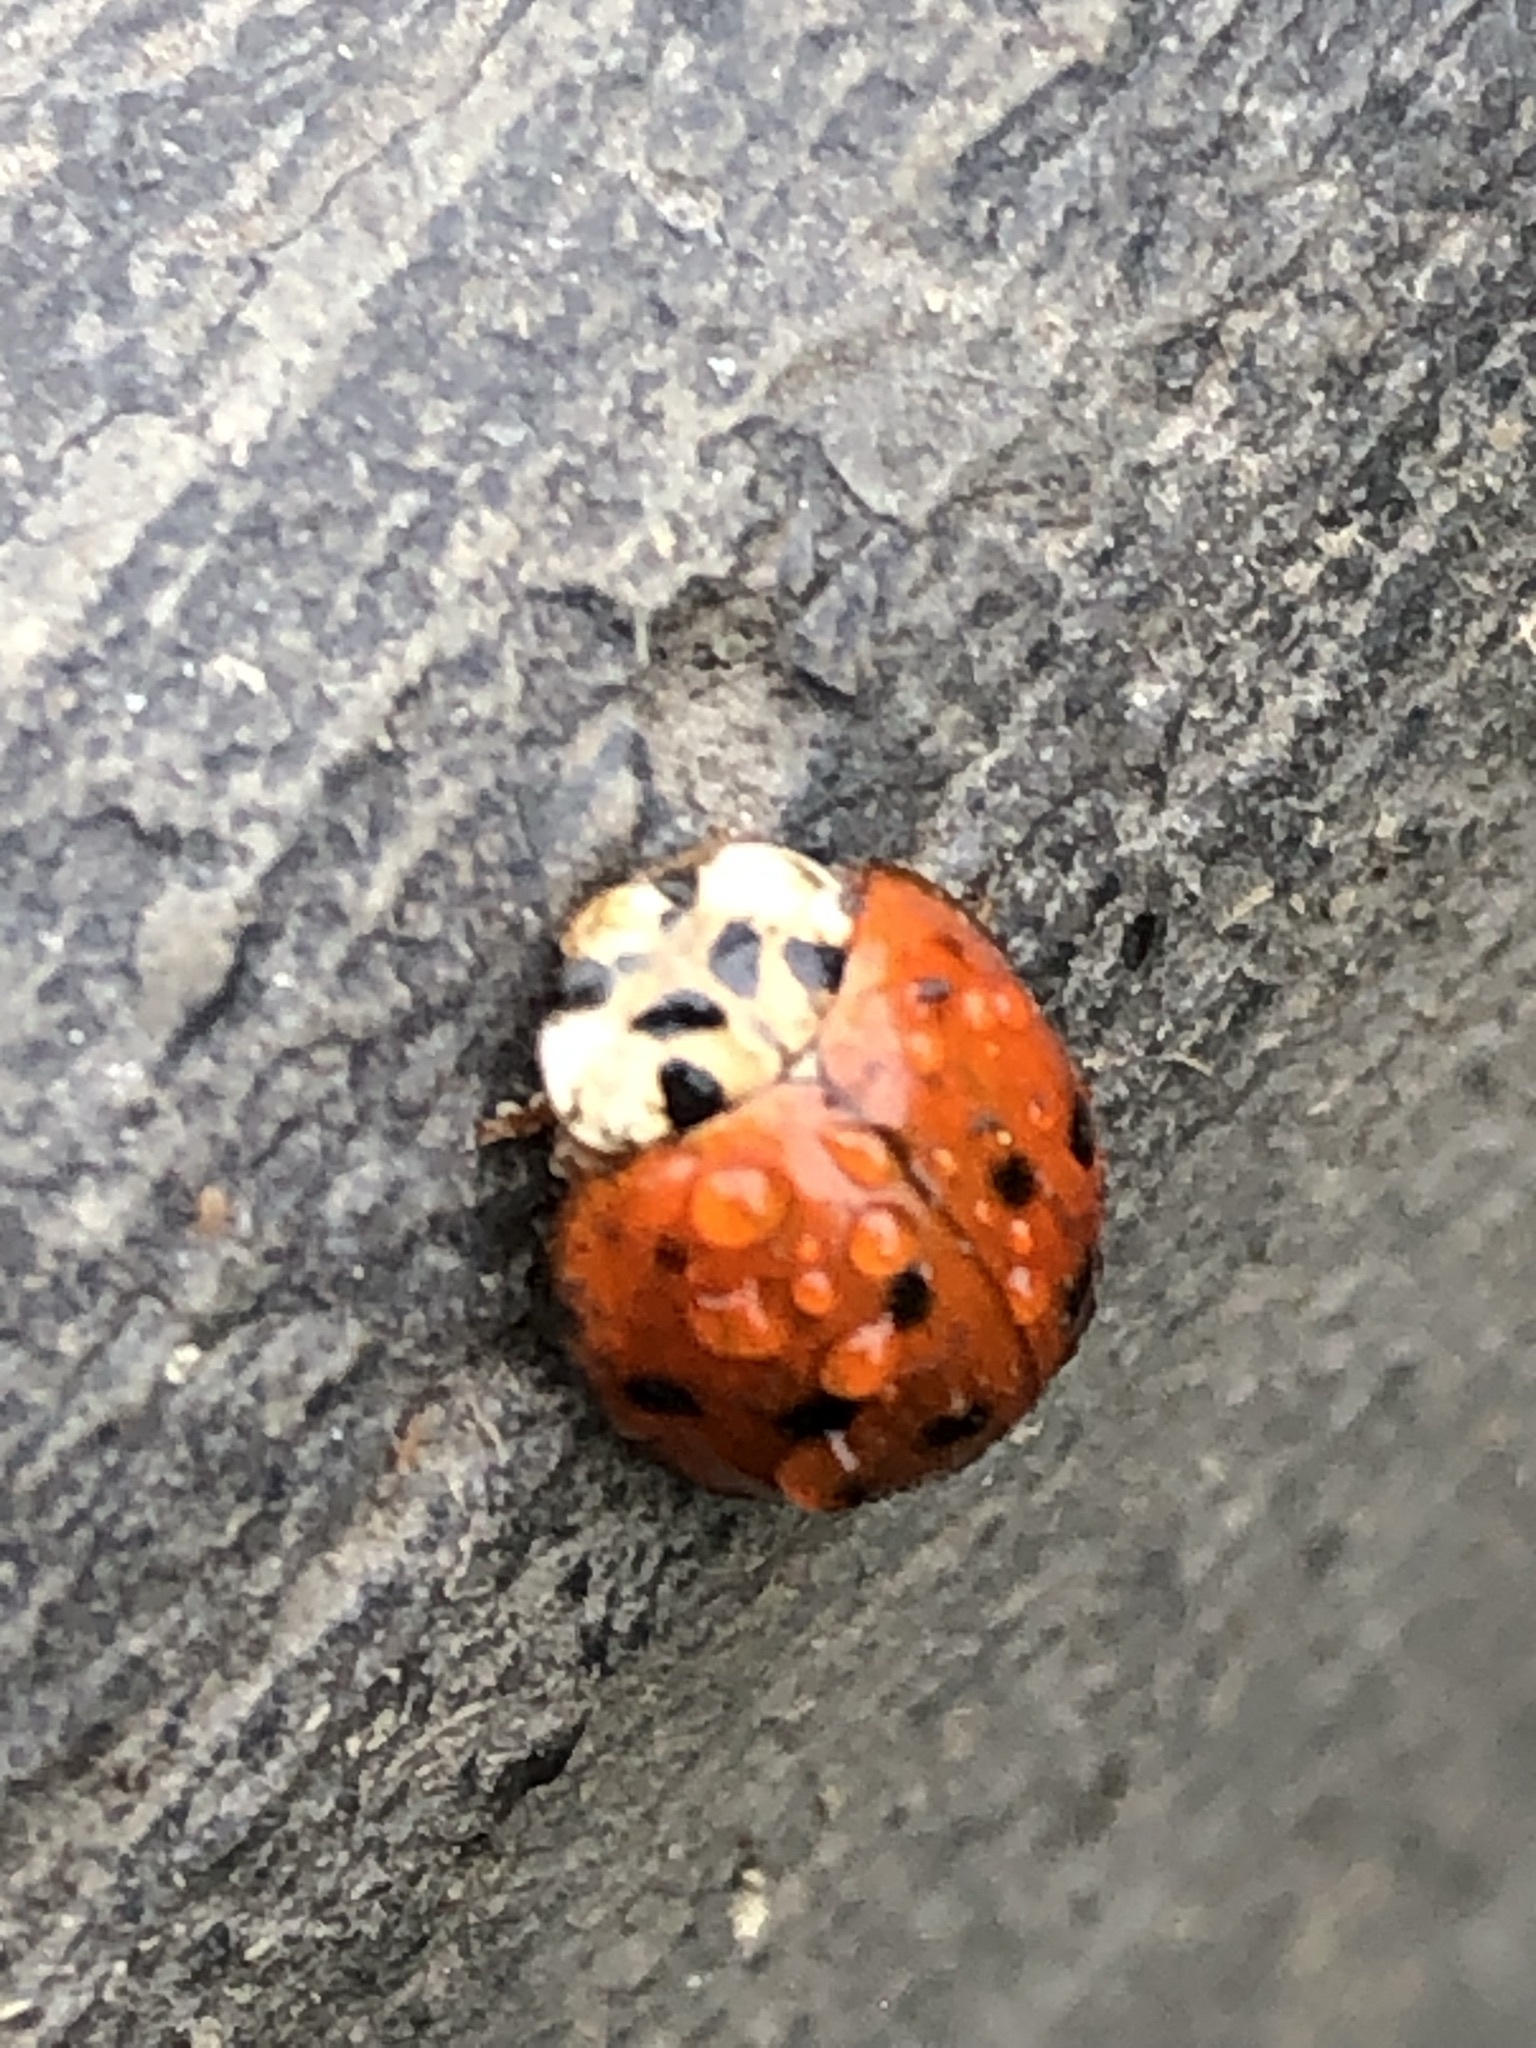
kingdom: Animalia
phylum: Arthropoda
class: Insecta
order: Coleoptera
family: Coccinellidae
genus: Harmonia
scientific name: Harmonia axyridis
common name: Harlequin ladybird
